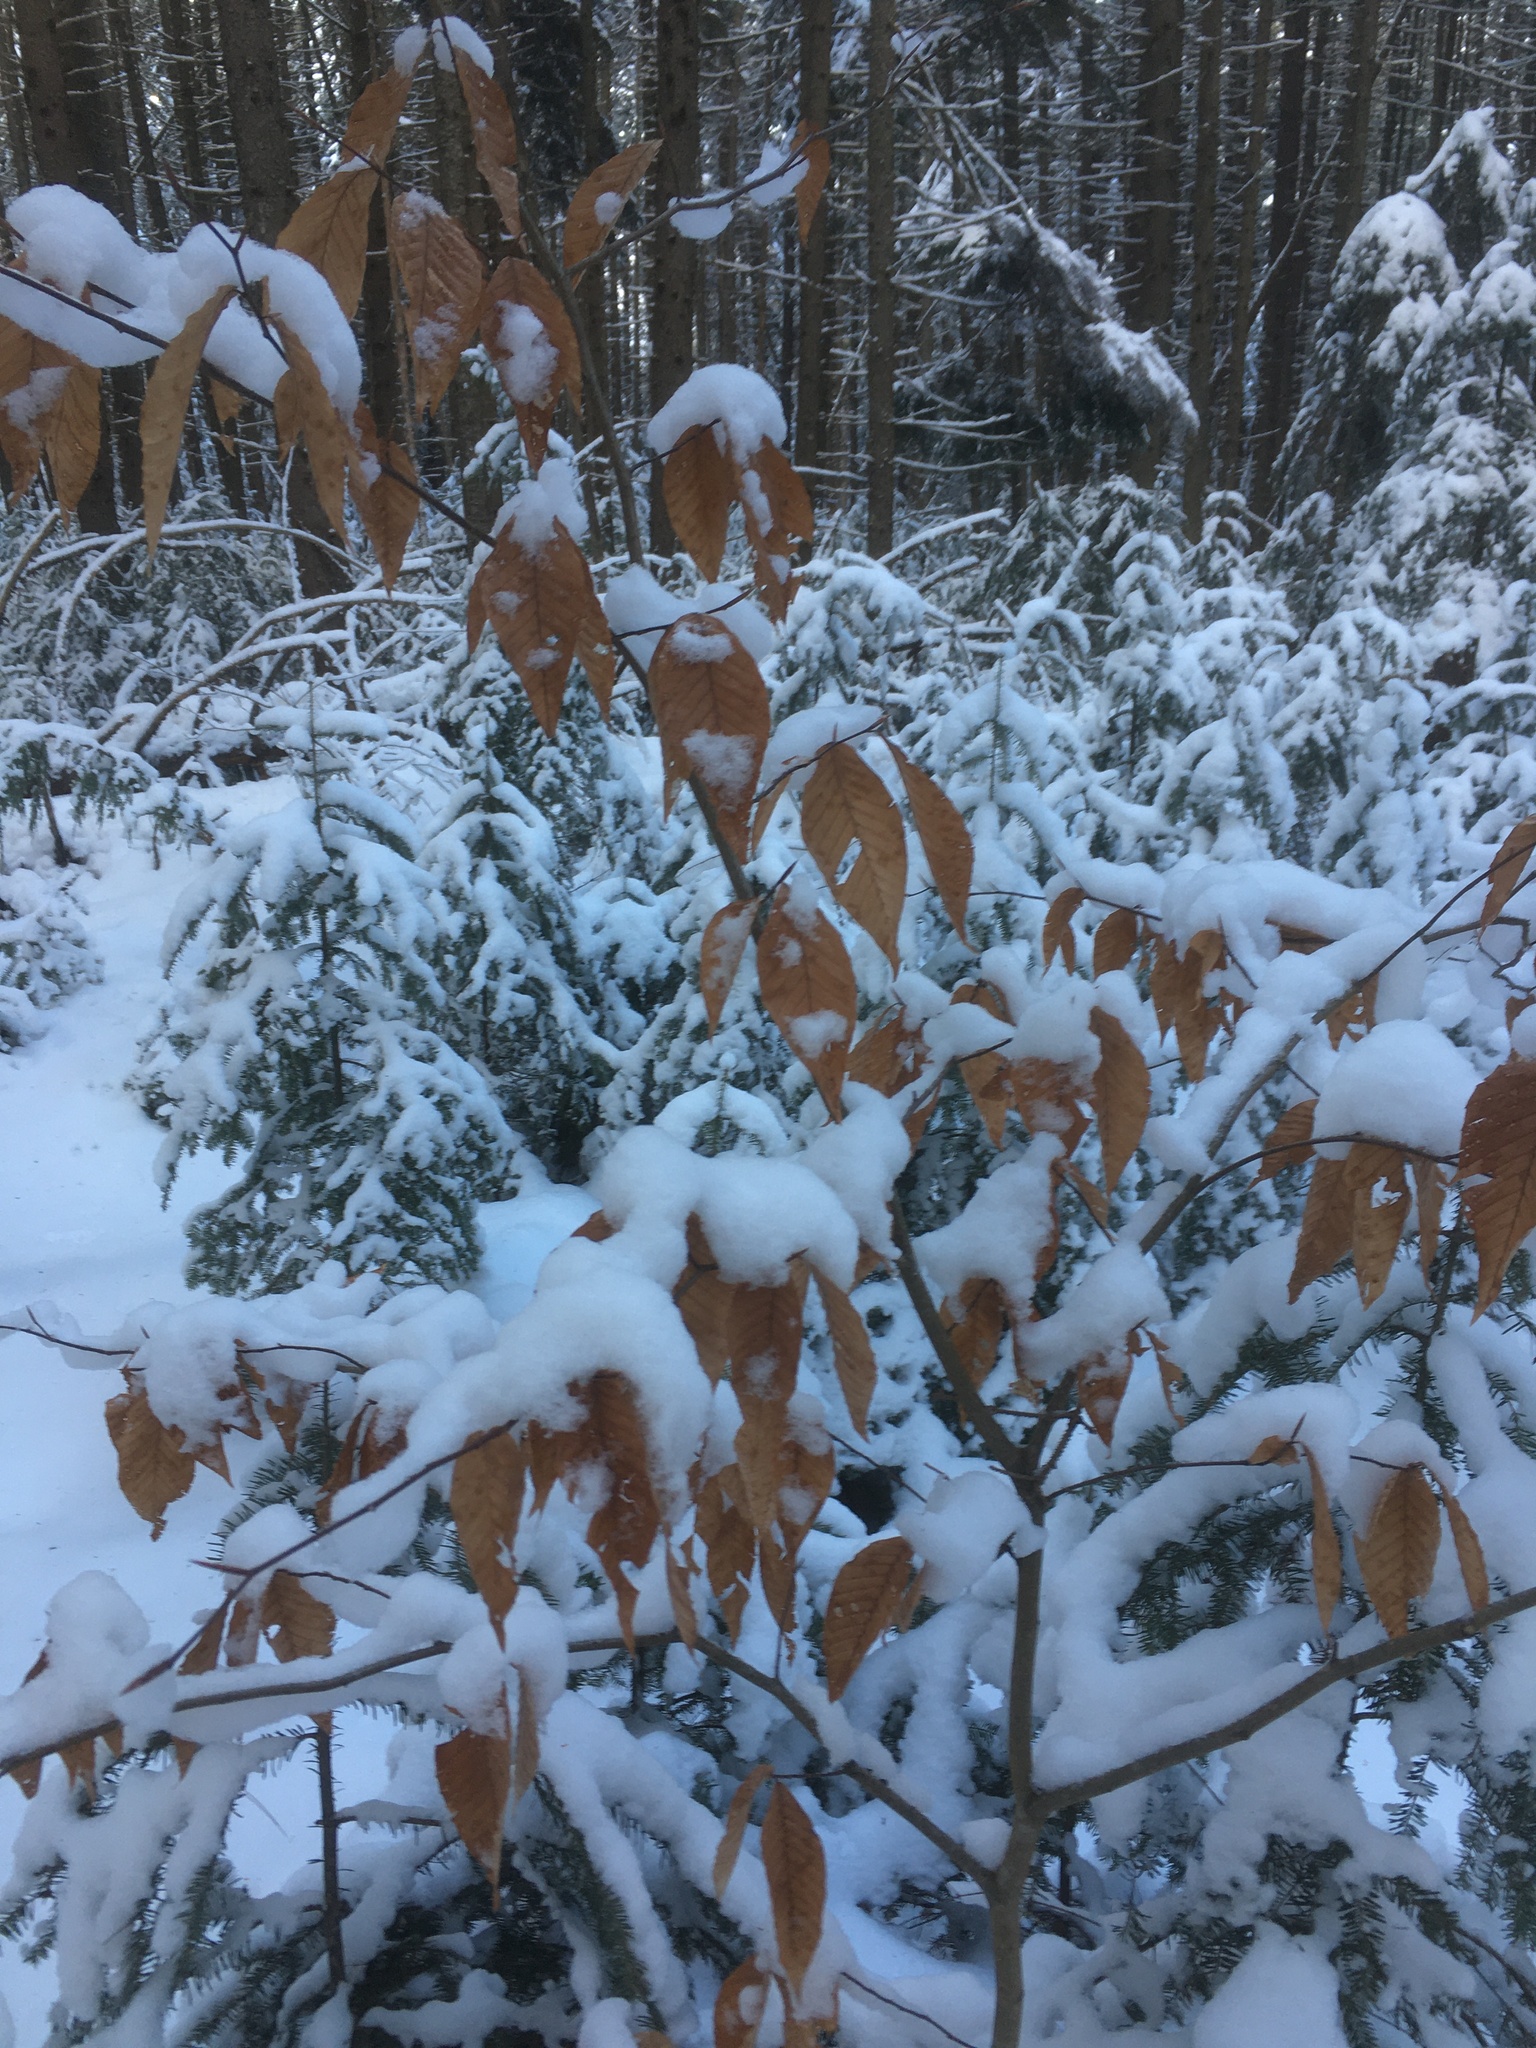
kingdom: Plantae
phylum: Tracheophyta
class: Magnoliopsida
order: Fagales
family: Fagaceae
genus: Fagus
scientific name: Fagus grandifolia
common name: American beech
